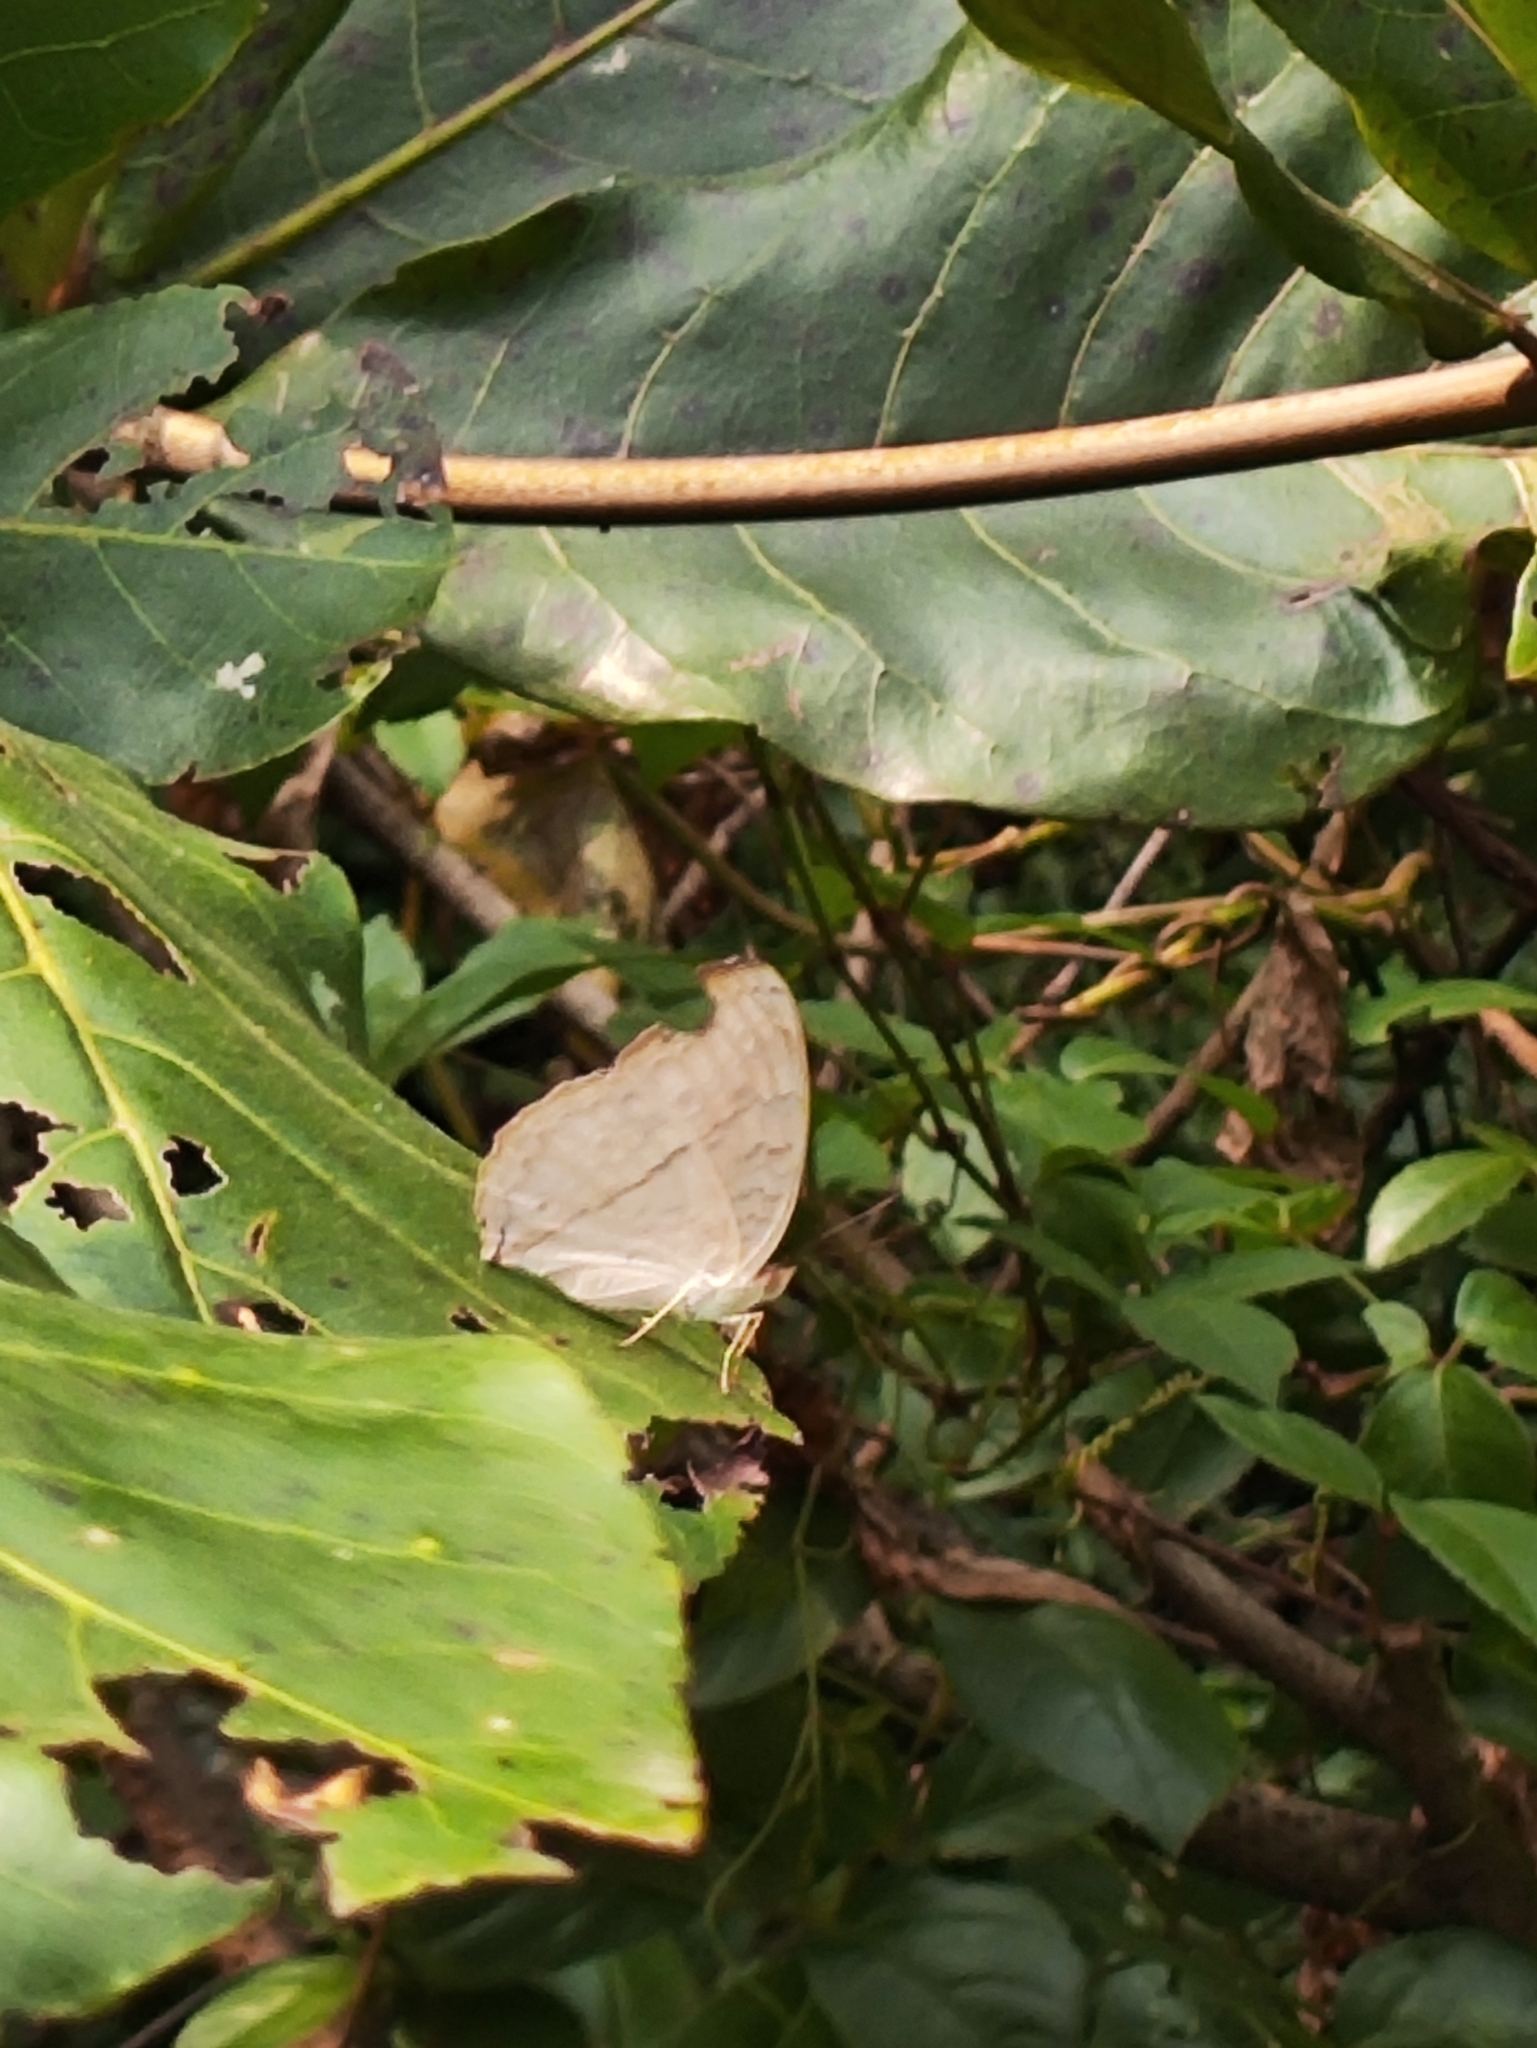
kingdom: Animalia
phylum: Arthropoda
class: Insecta
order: Lepidoptera
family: Nymphalidae
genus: Junonia
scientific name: Junonia atlites
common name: Grey pansy
